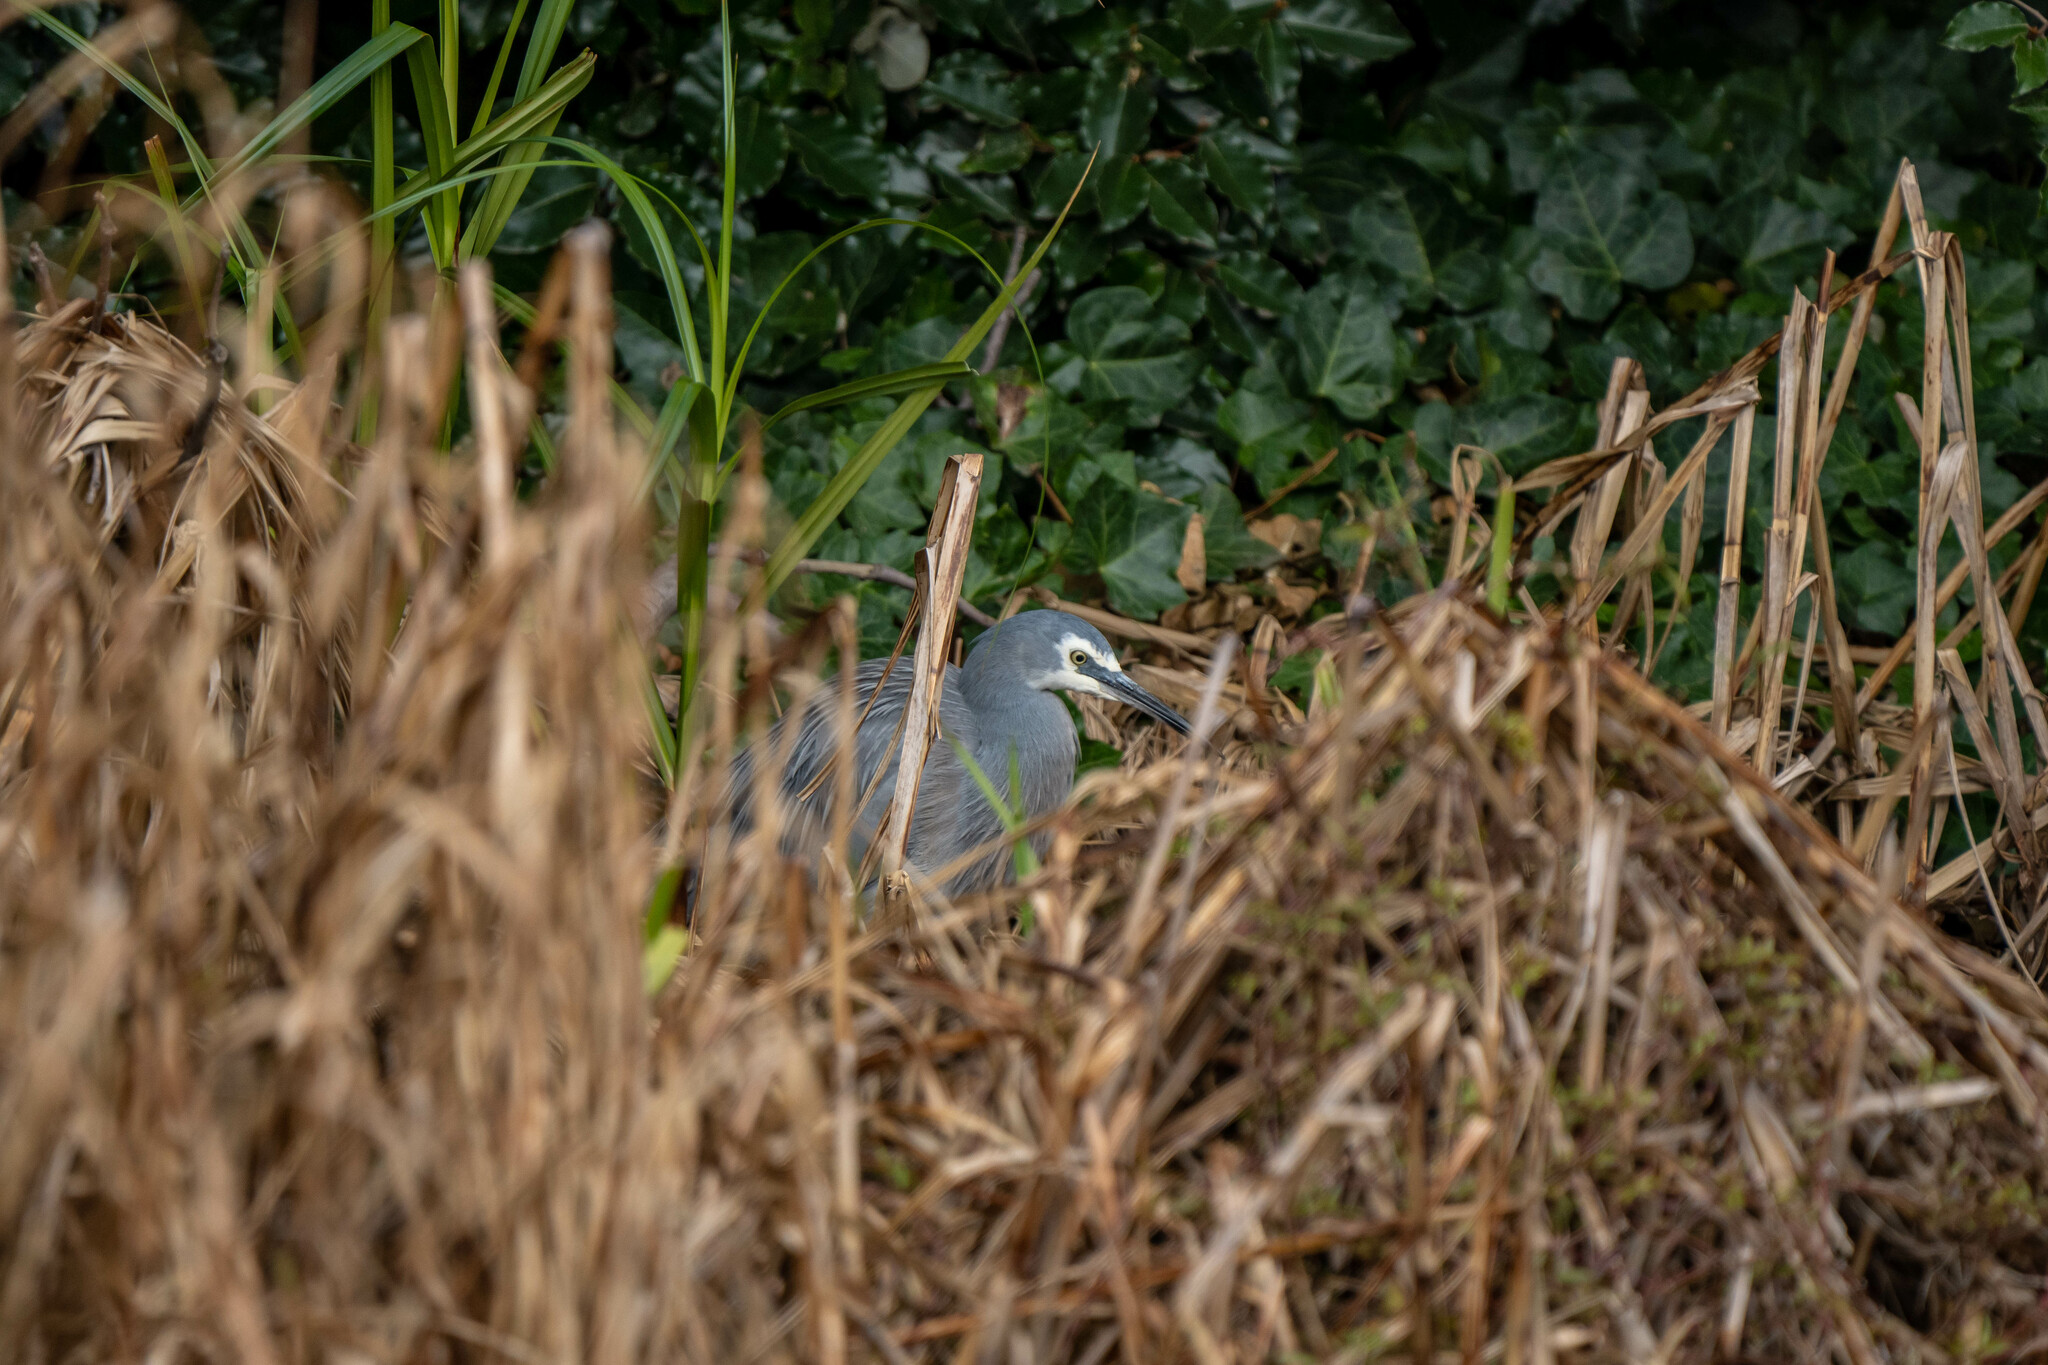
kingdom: Animalia
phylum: Chordata
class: Aves
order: Pelecaniformes
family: Ardeidae
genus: Egretta
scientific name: Egretta novaehollandiae
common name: White-faced heron
